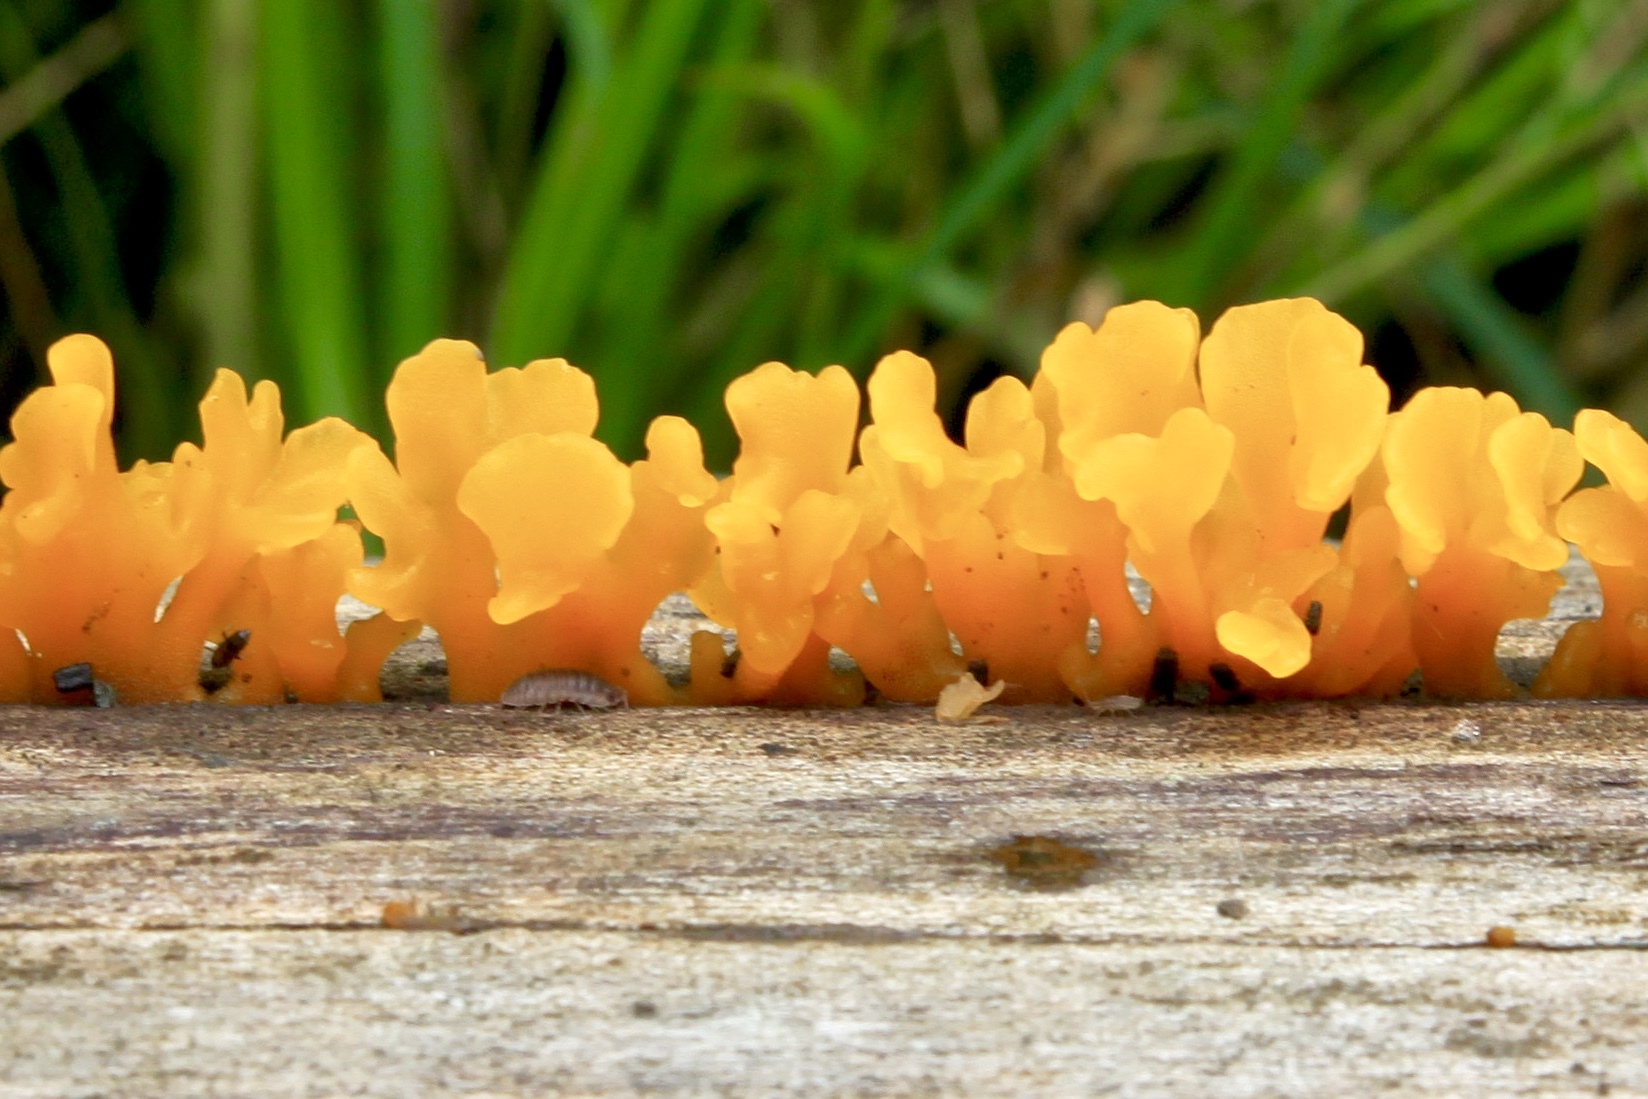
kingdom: Fungi
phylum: Basidiomycota
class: Dacrymycetes
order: Dacrymycetales
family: Dacrymycetaceae
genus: Dacrymyces
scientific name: Dacrymyces spathularius
